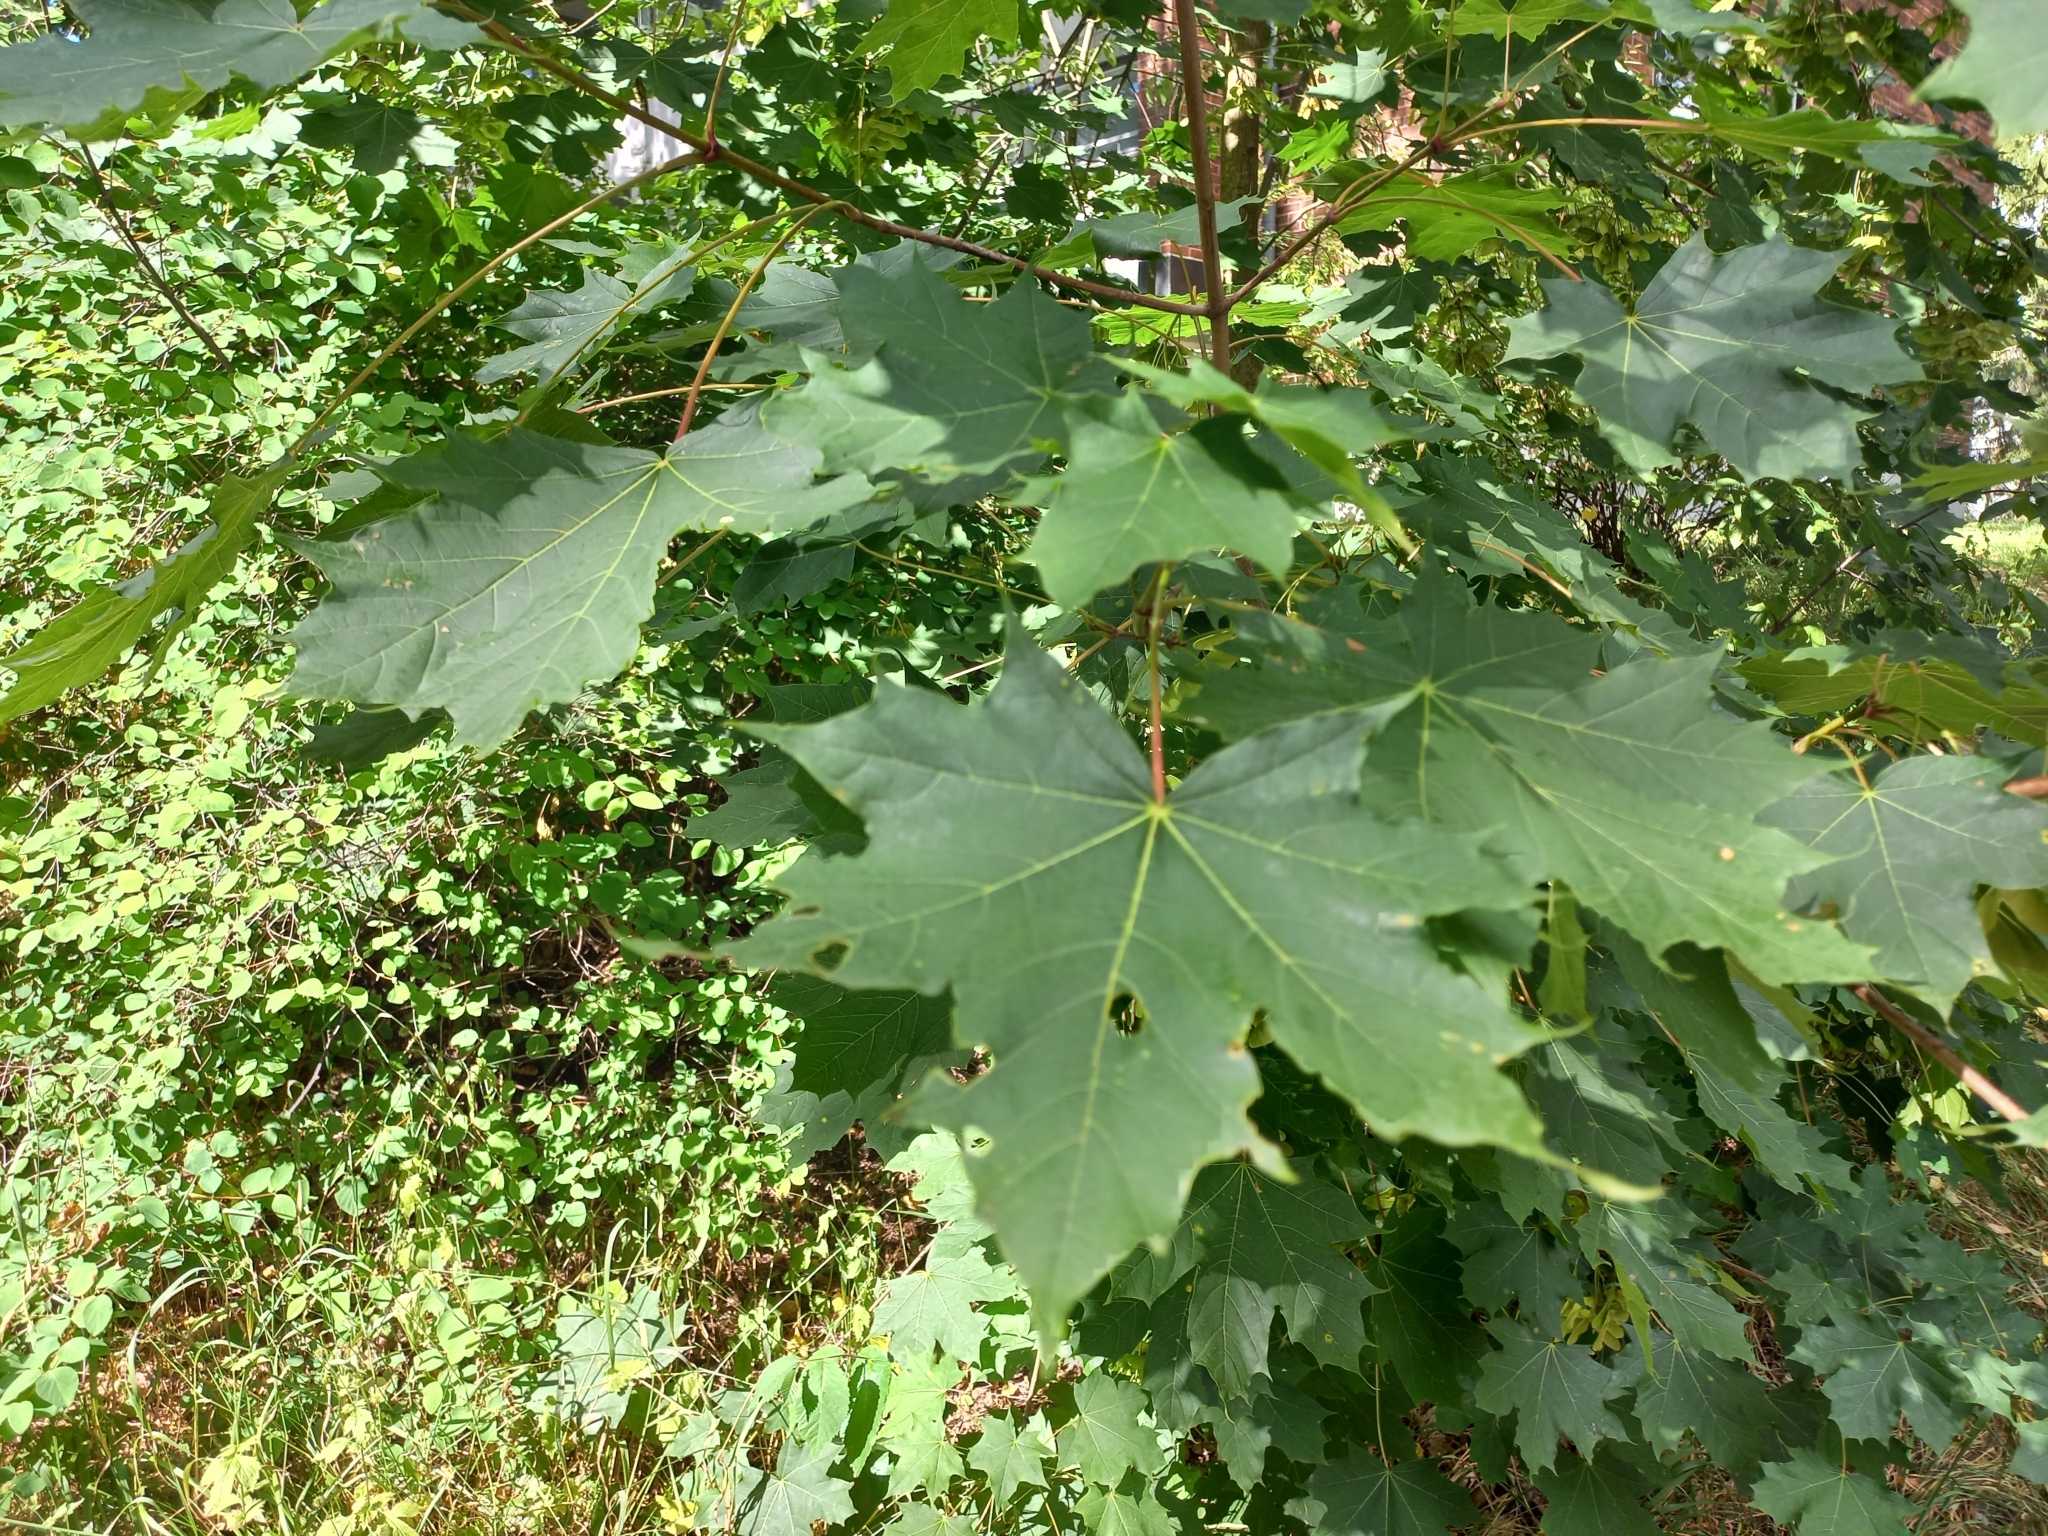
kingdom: Plantae
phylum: Tracheophyta
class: Magnoliopsida
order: Sapindales
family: Sapindaceae
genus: Acer
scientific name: Acer platanoides
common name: Norway maple
